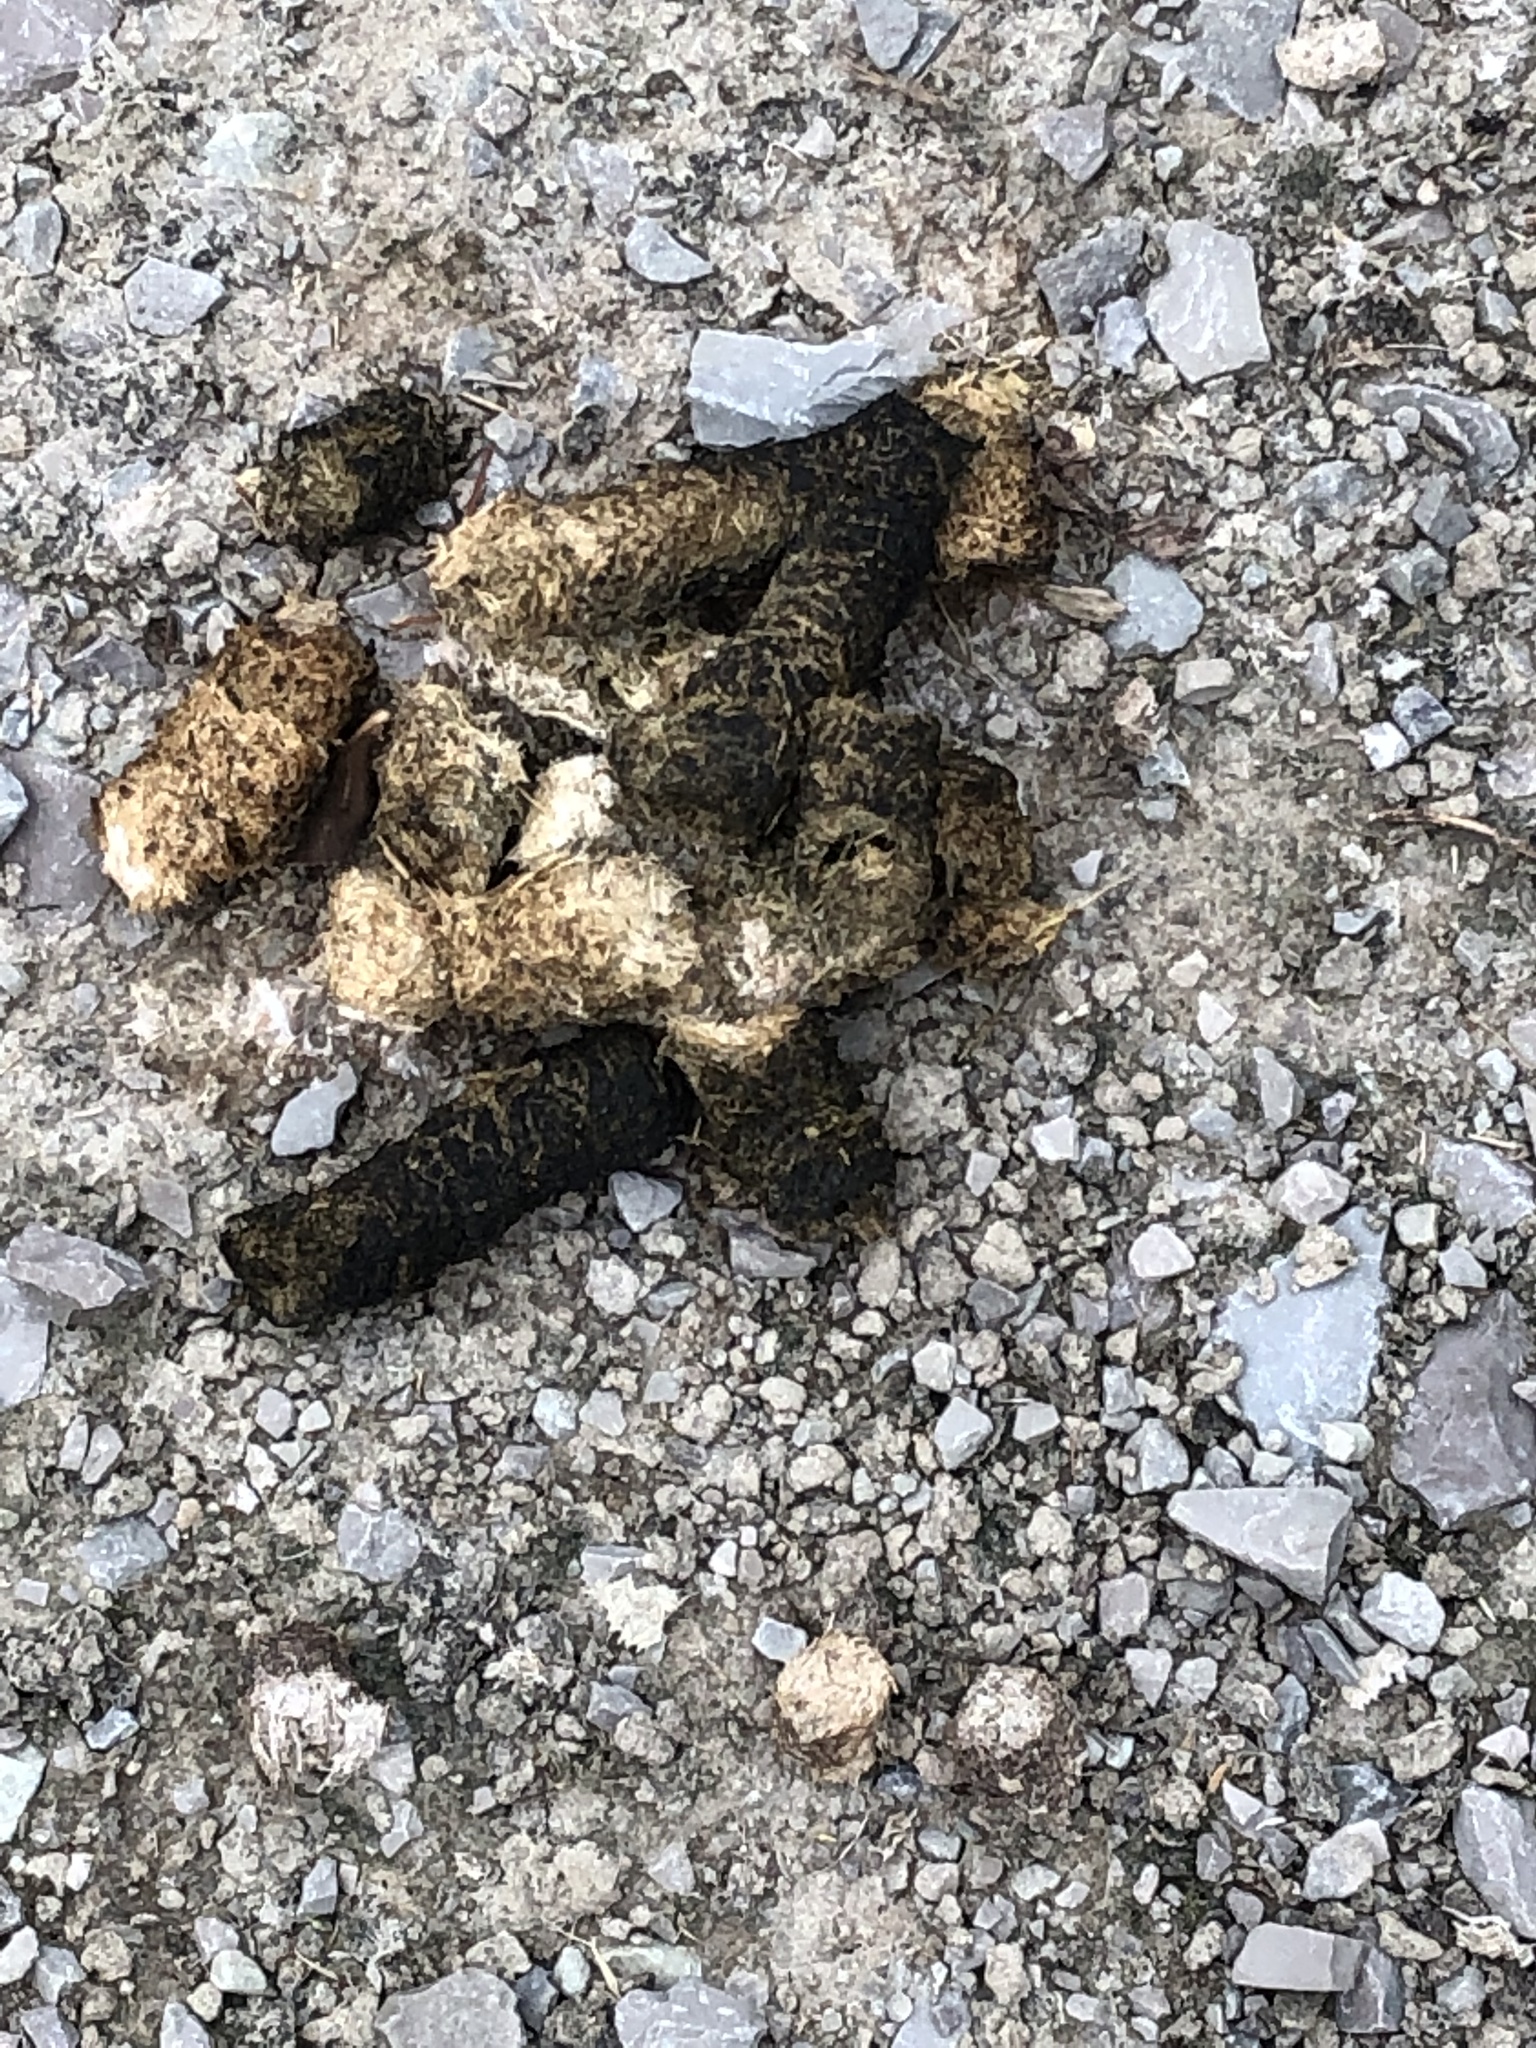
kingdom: Animalia
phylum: Chordata
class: Aves
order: Anseriformes
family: Anatidae
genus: Branta
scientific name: Branta canadensis
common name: Canada goose
